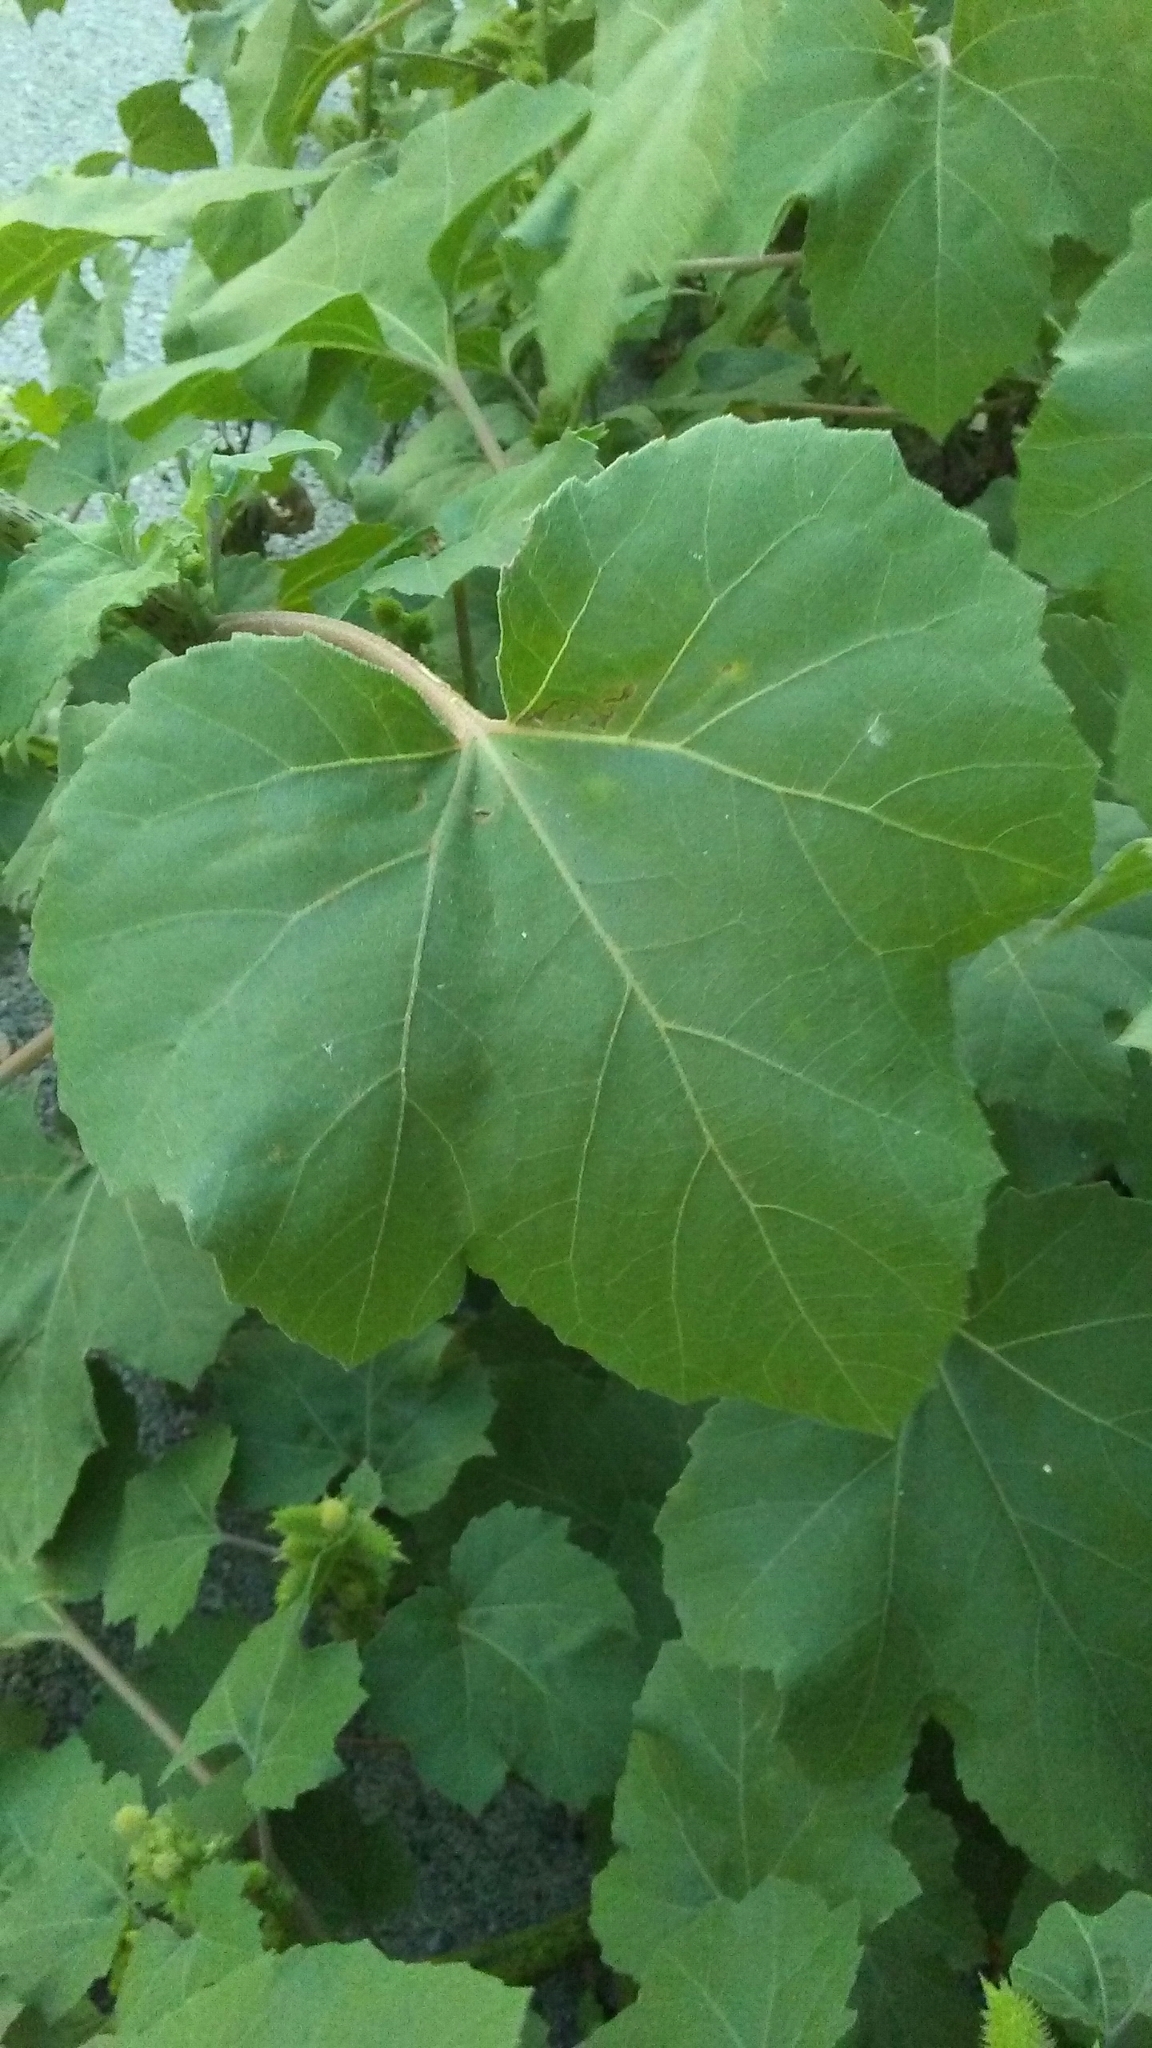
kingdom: Plantae
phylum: Tracheophyta
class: Magnoliopsida
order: Asterales
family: Asteraceae
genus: Xanthium
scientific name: Xanthium strumarium
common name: Rough cocklebur
